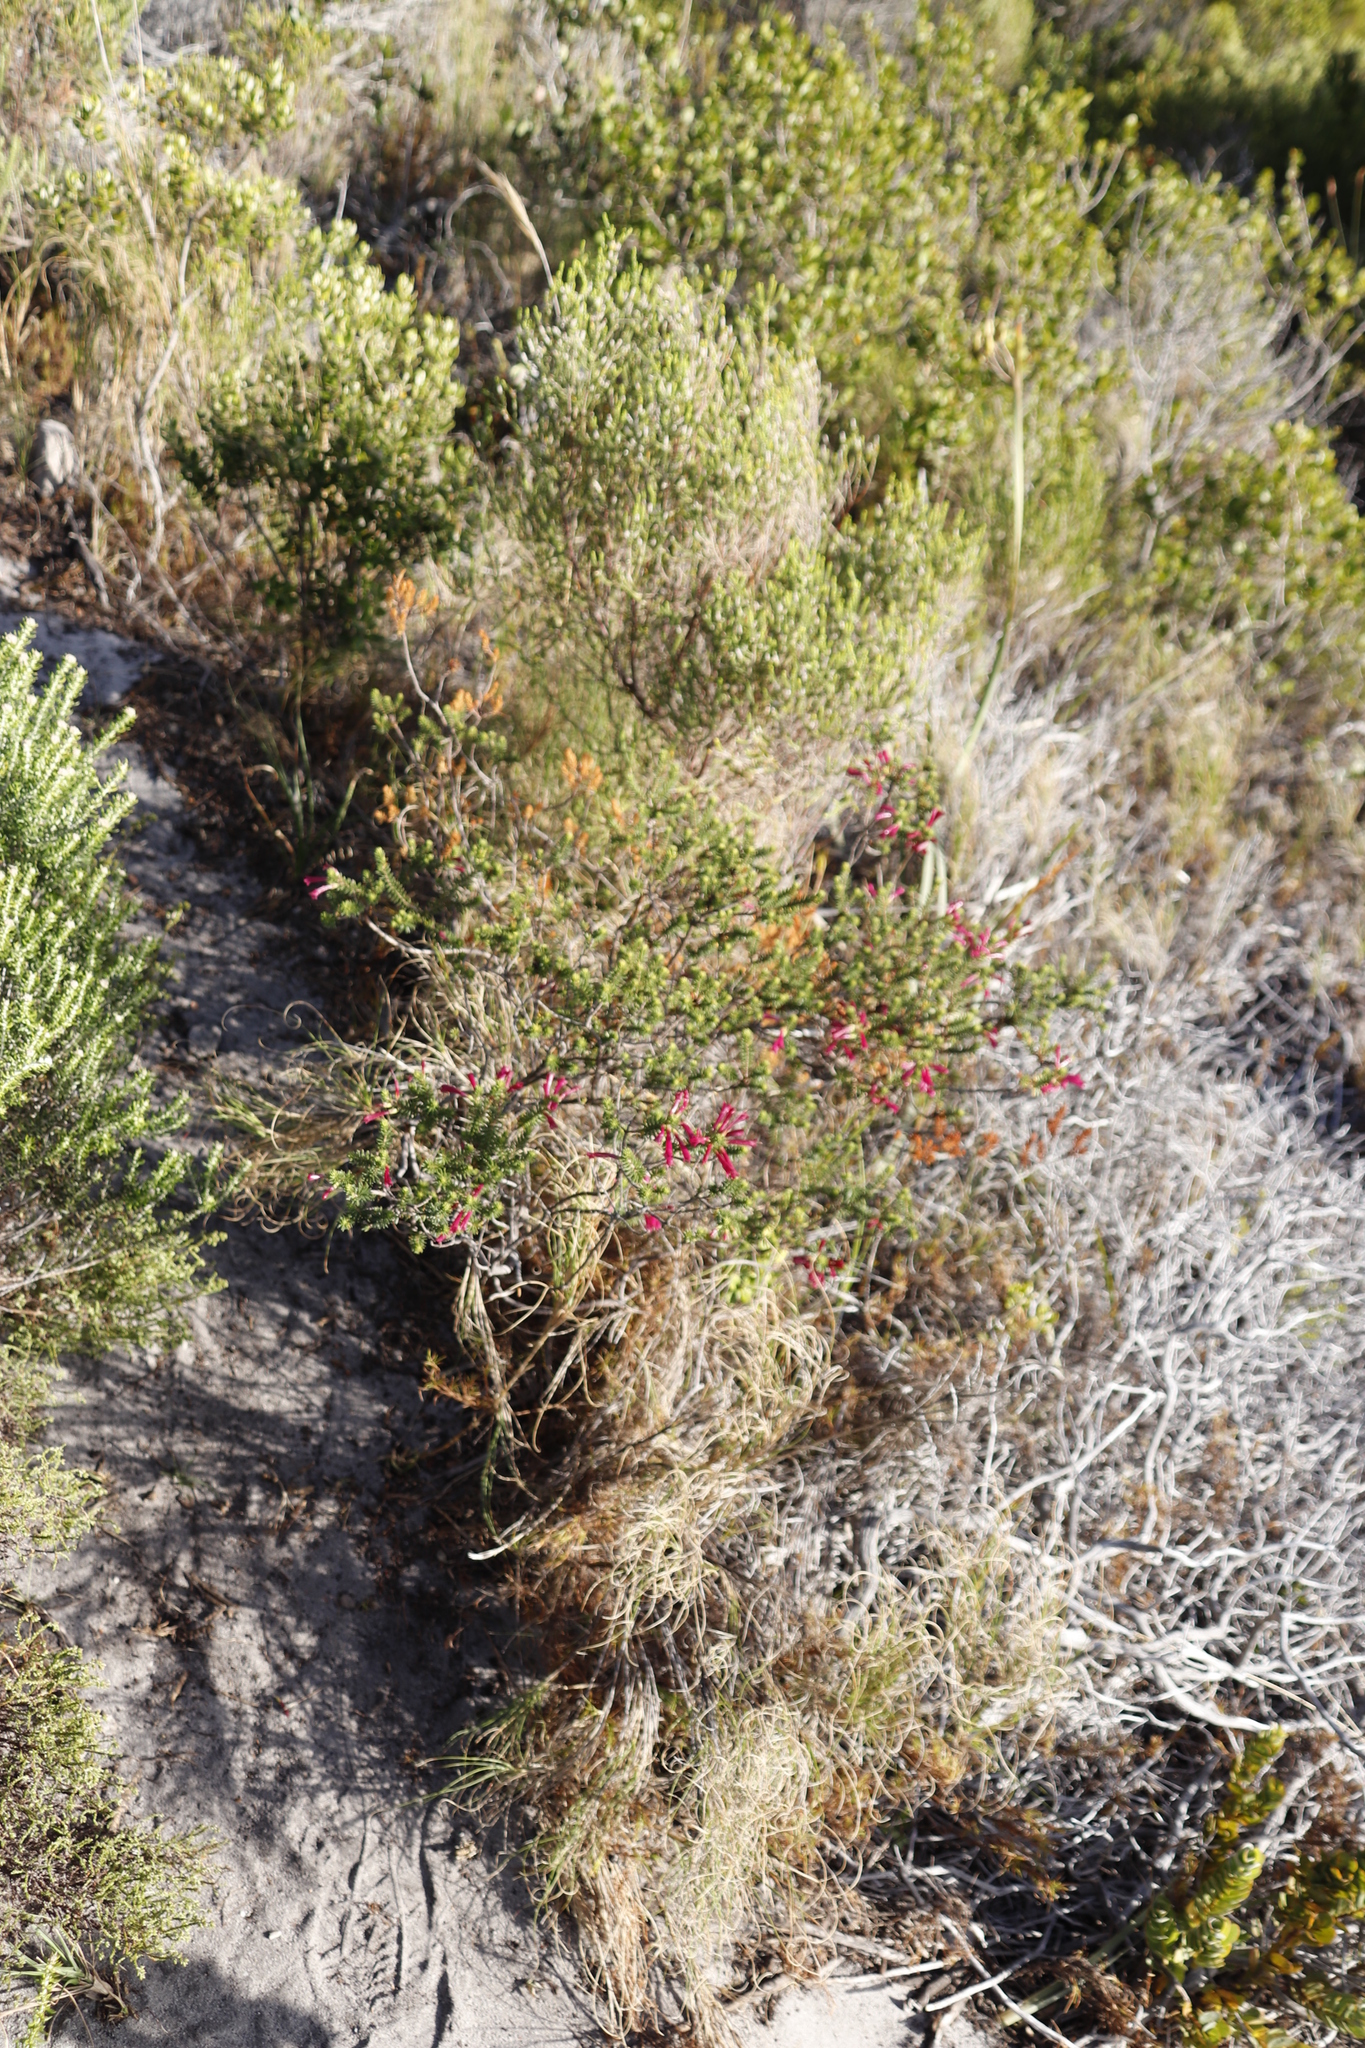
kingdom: Plantae
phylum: Tracheophyta
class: Magnoliopsida
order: Ericales
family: Ericaceae
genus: Erica
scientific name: Erica abietina
